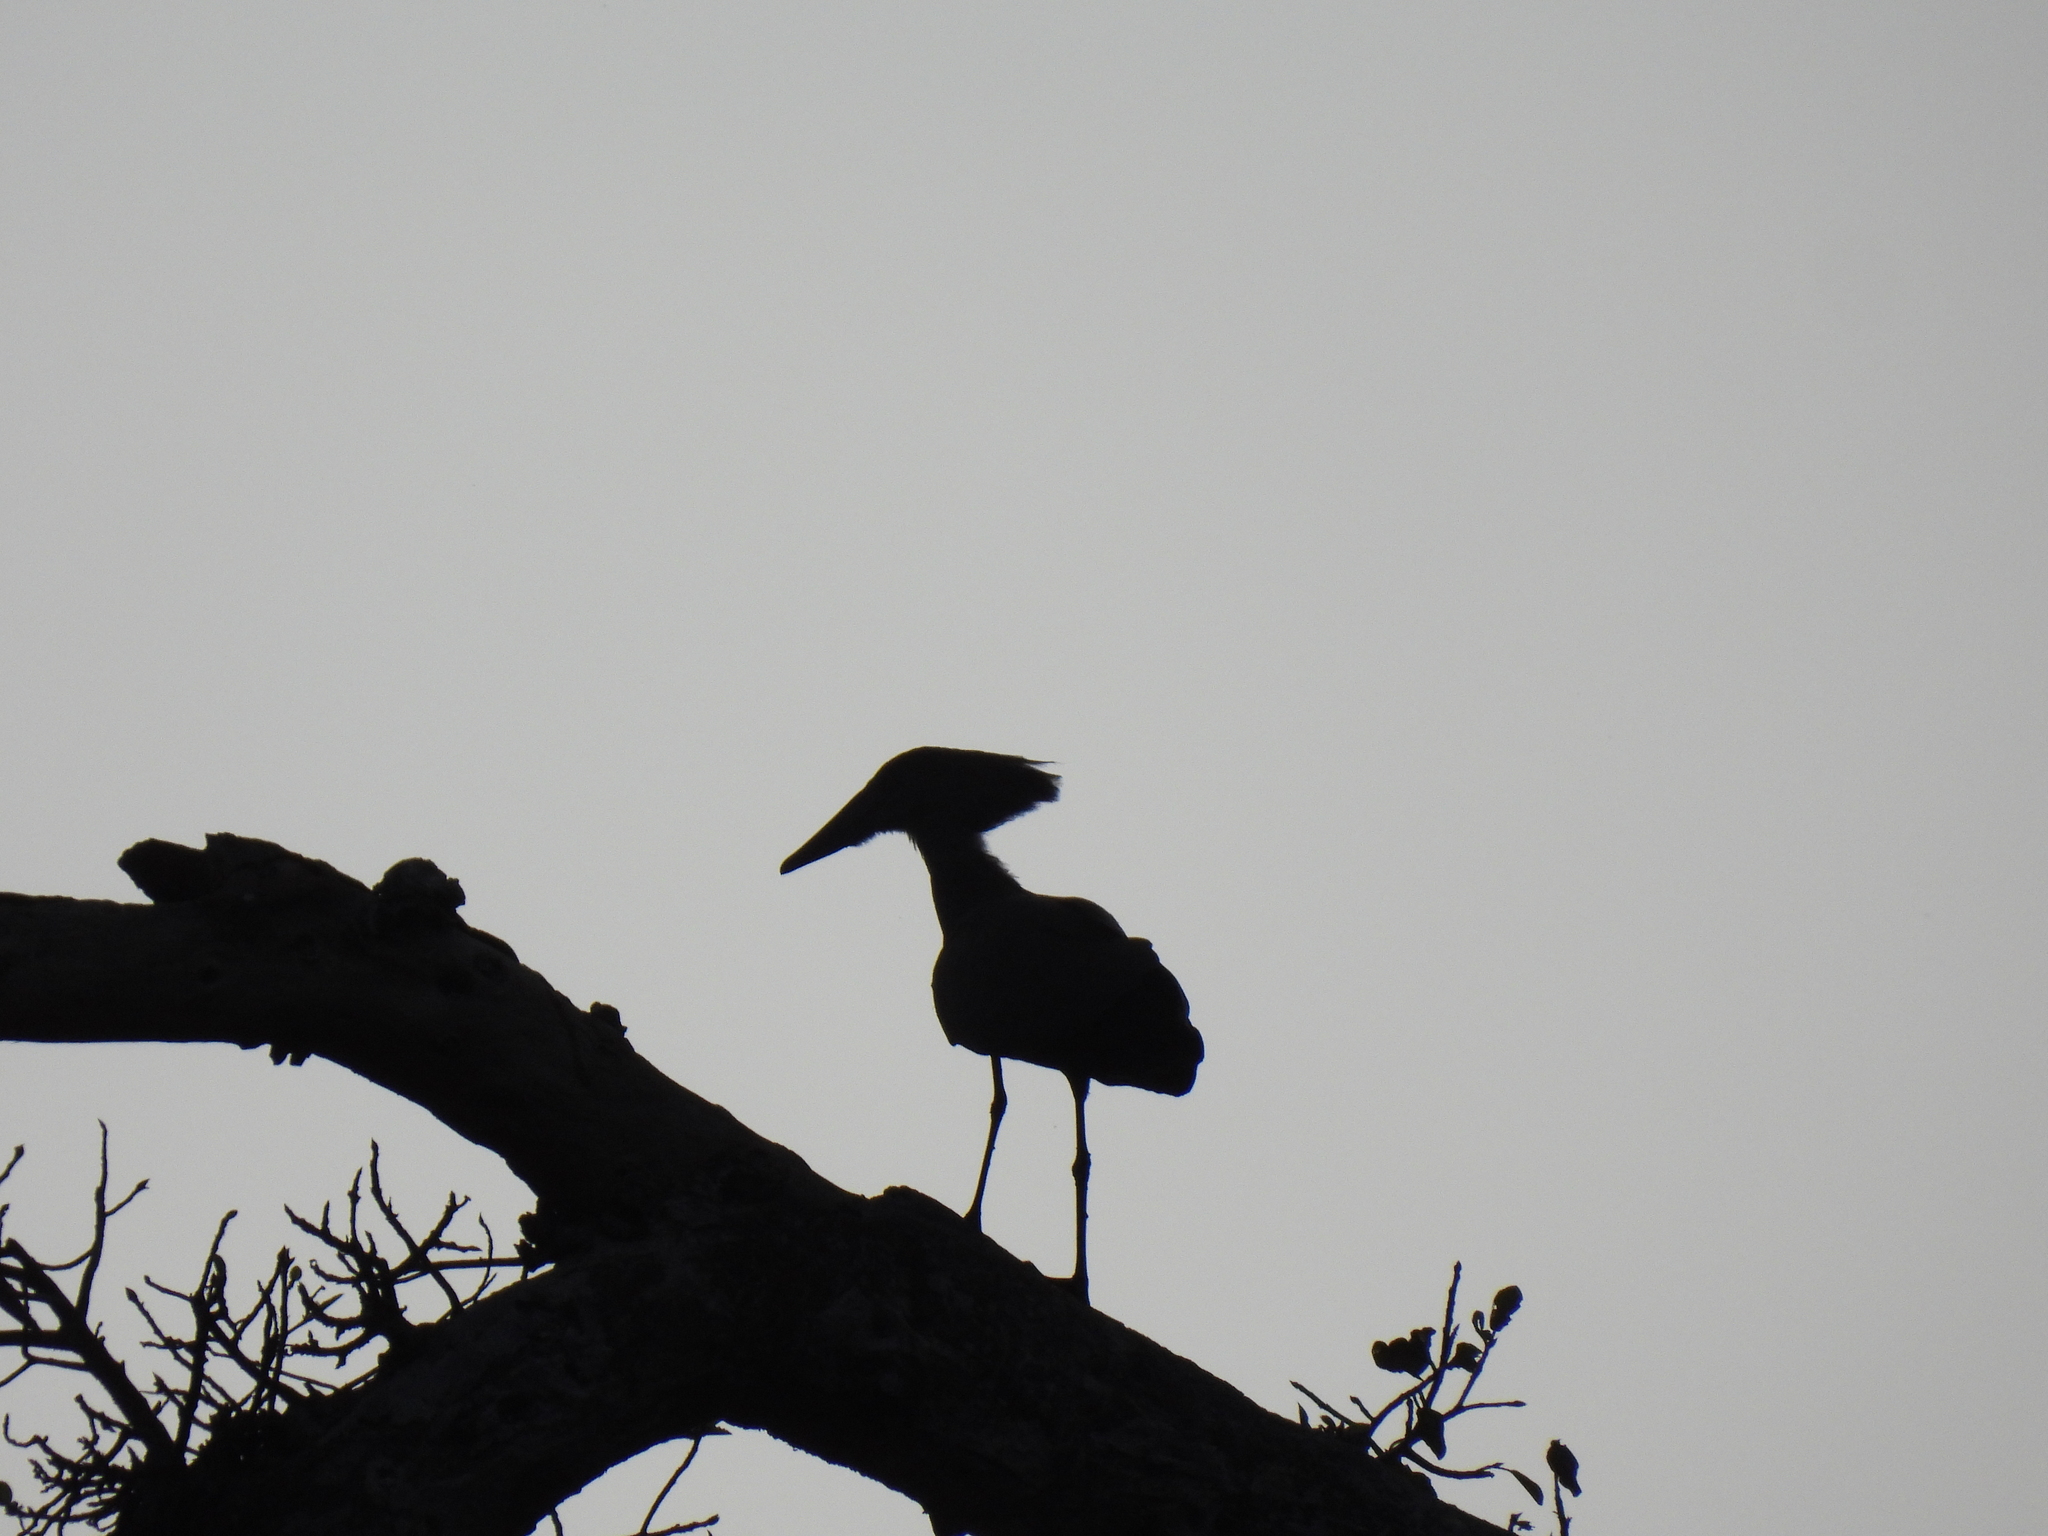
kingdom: Animalia
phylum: Chordata
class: Aves
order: Pelecaniformes
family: Scopidae
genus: Scopus
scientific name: Scopus umbretta
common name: Hamerkop
